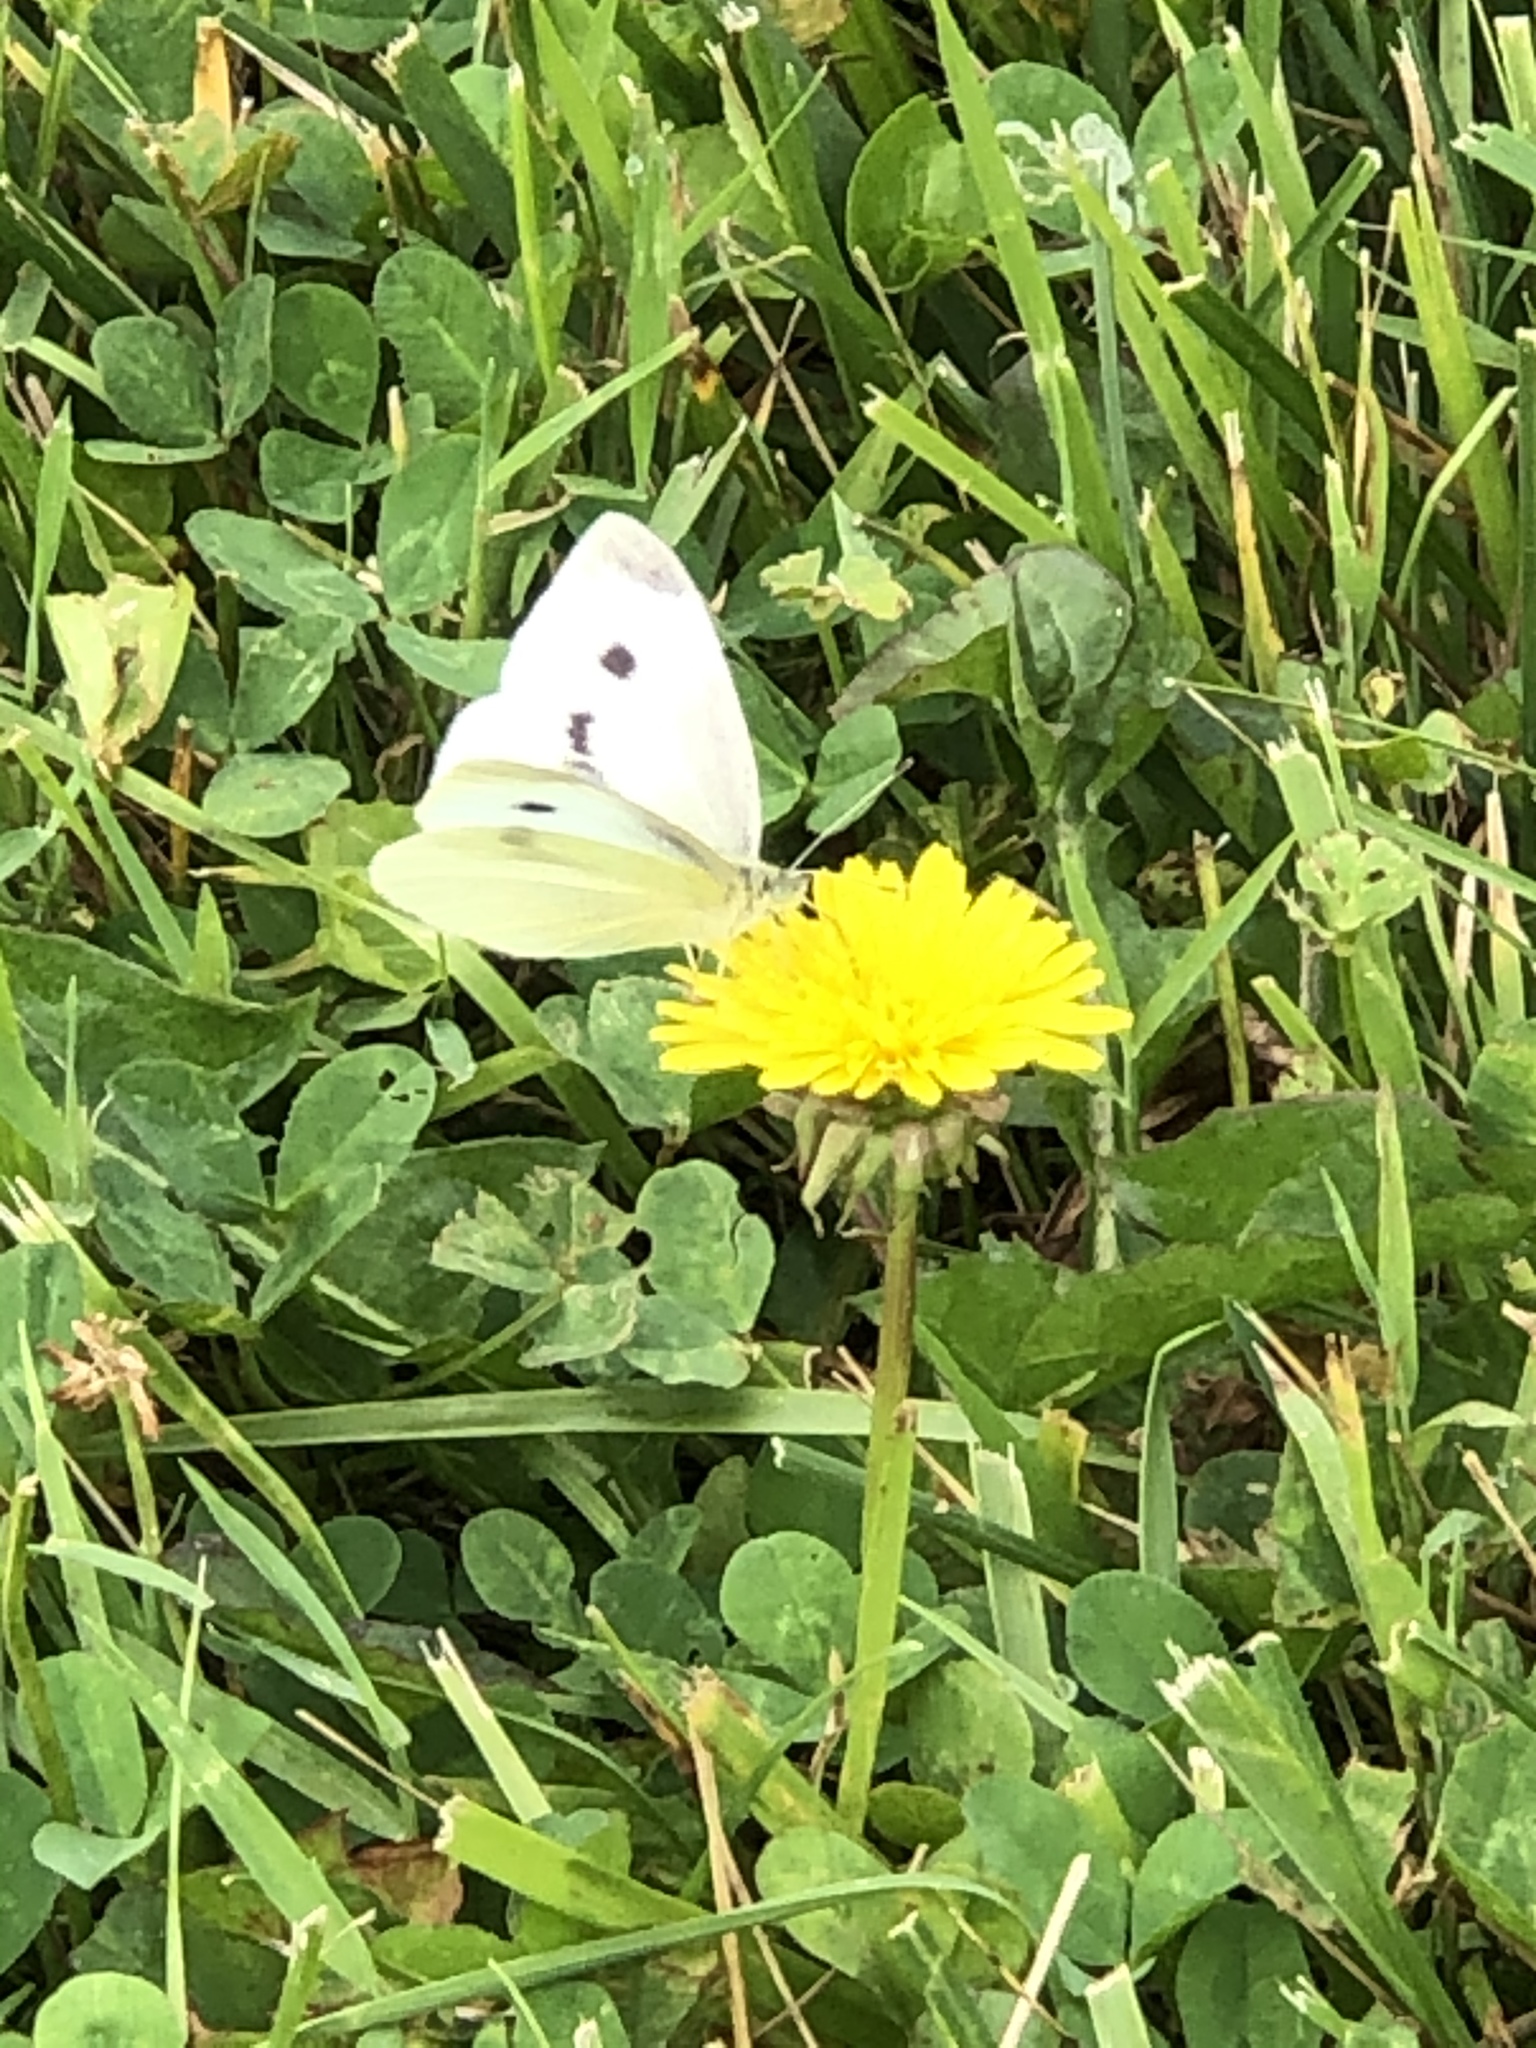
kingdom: Animalia
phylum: Arthropoda
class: Insecta
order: Lepidoptera
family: Pieridae
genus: Pieris
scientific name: Pieris rapae
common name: Small white
